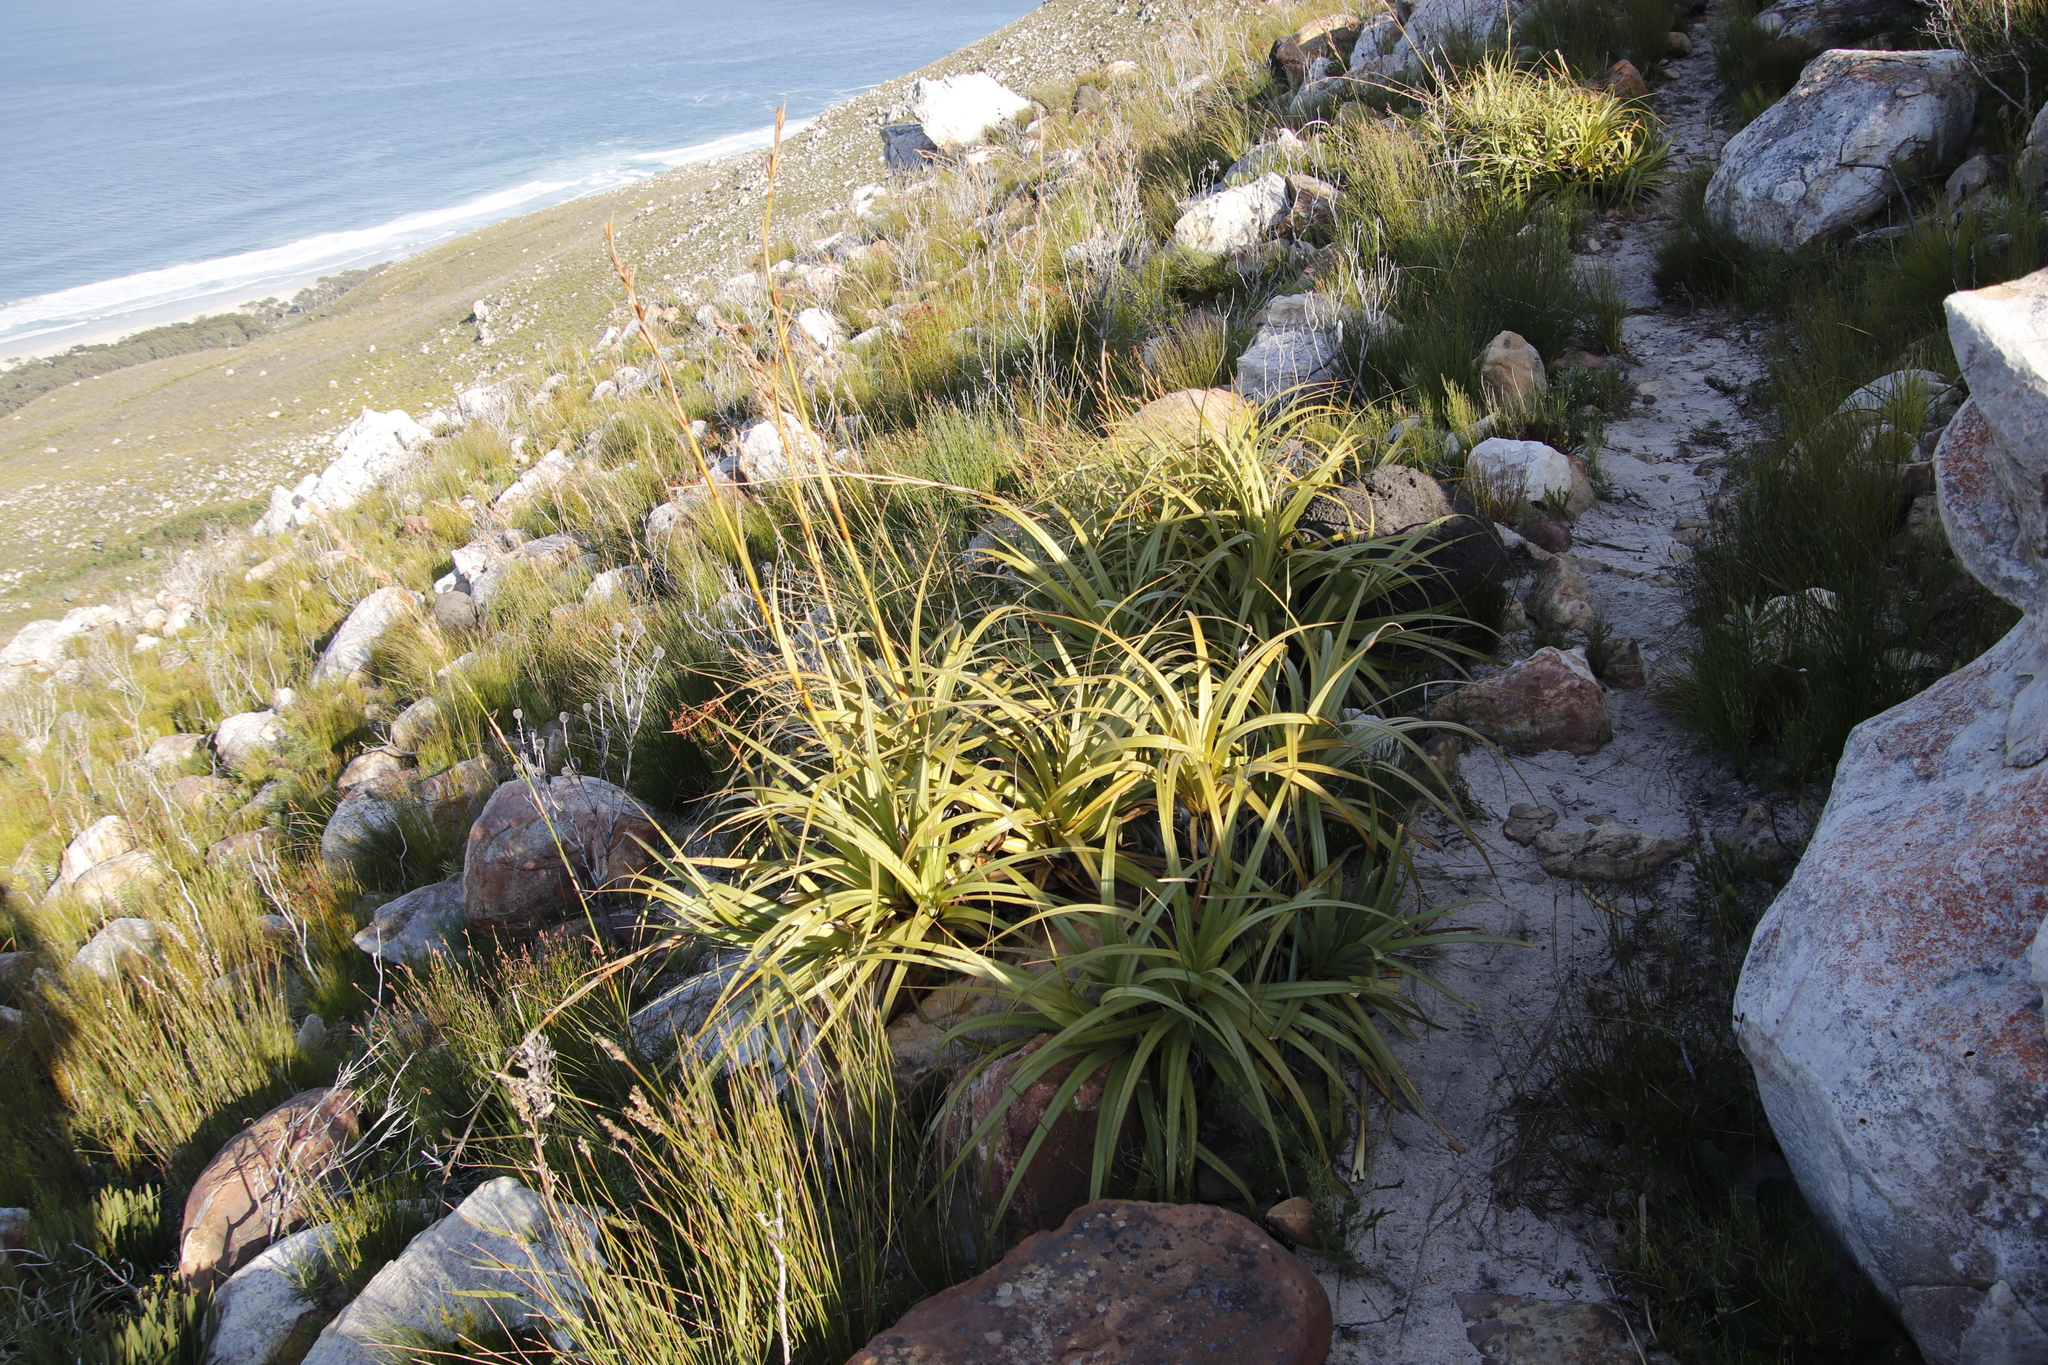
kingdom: Plantae
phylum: Tracheophyta
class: Liliopsida
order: Poales
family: Cyperaceae
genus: Tetraria
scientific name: Tetraria thermalis
